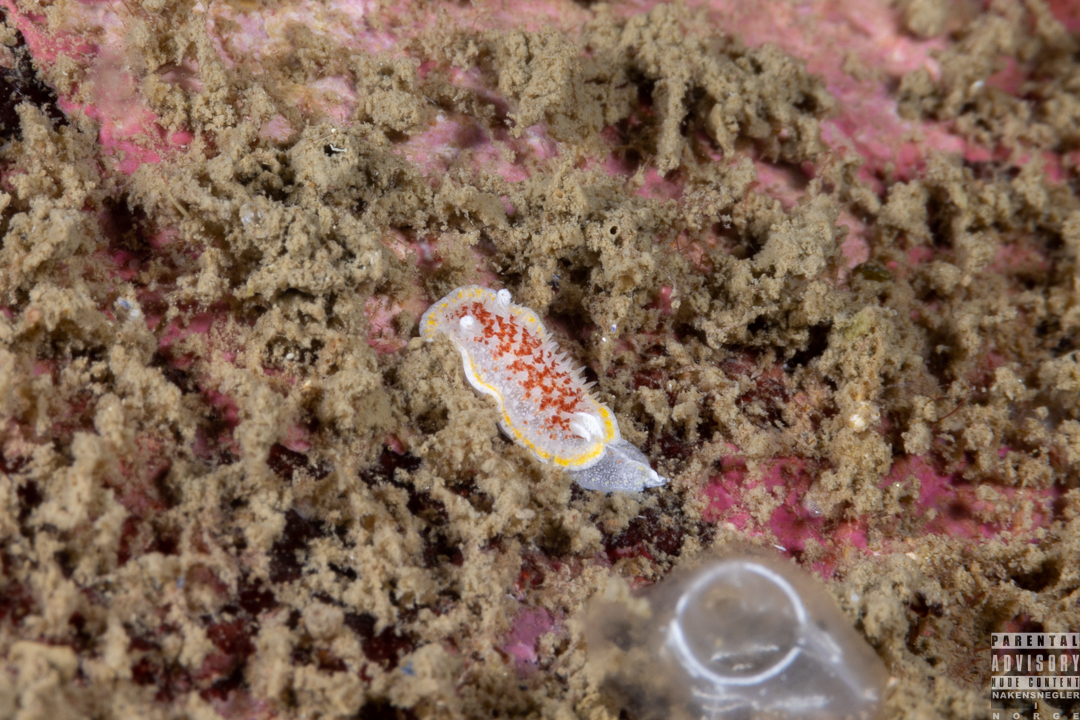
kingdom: Animalia
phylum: Mollusca
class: Gastropoda
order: Nudibranchia
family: Calycidorididae
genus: Diaphorodoris
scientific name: Diaphorodoris luteocincta
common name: Fried egg nudibranch
